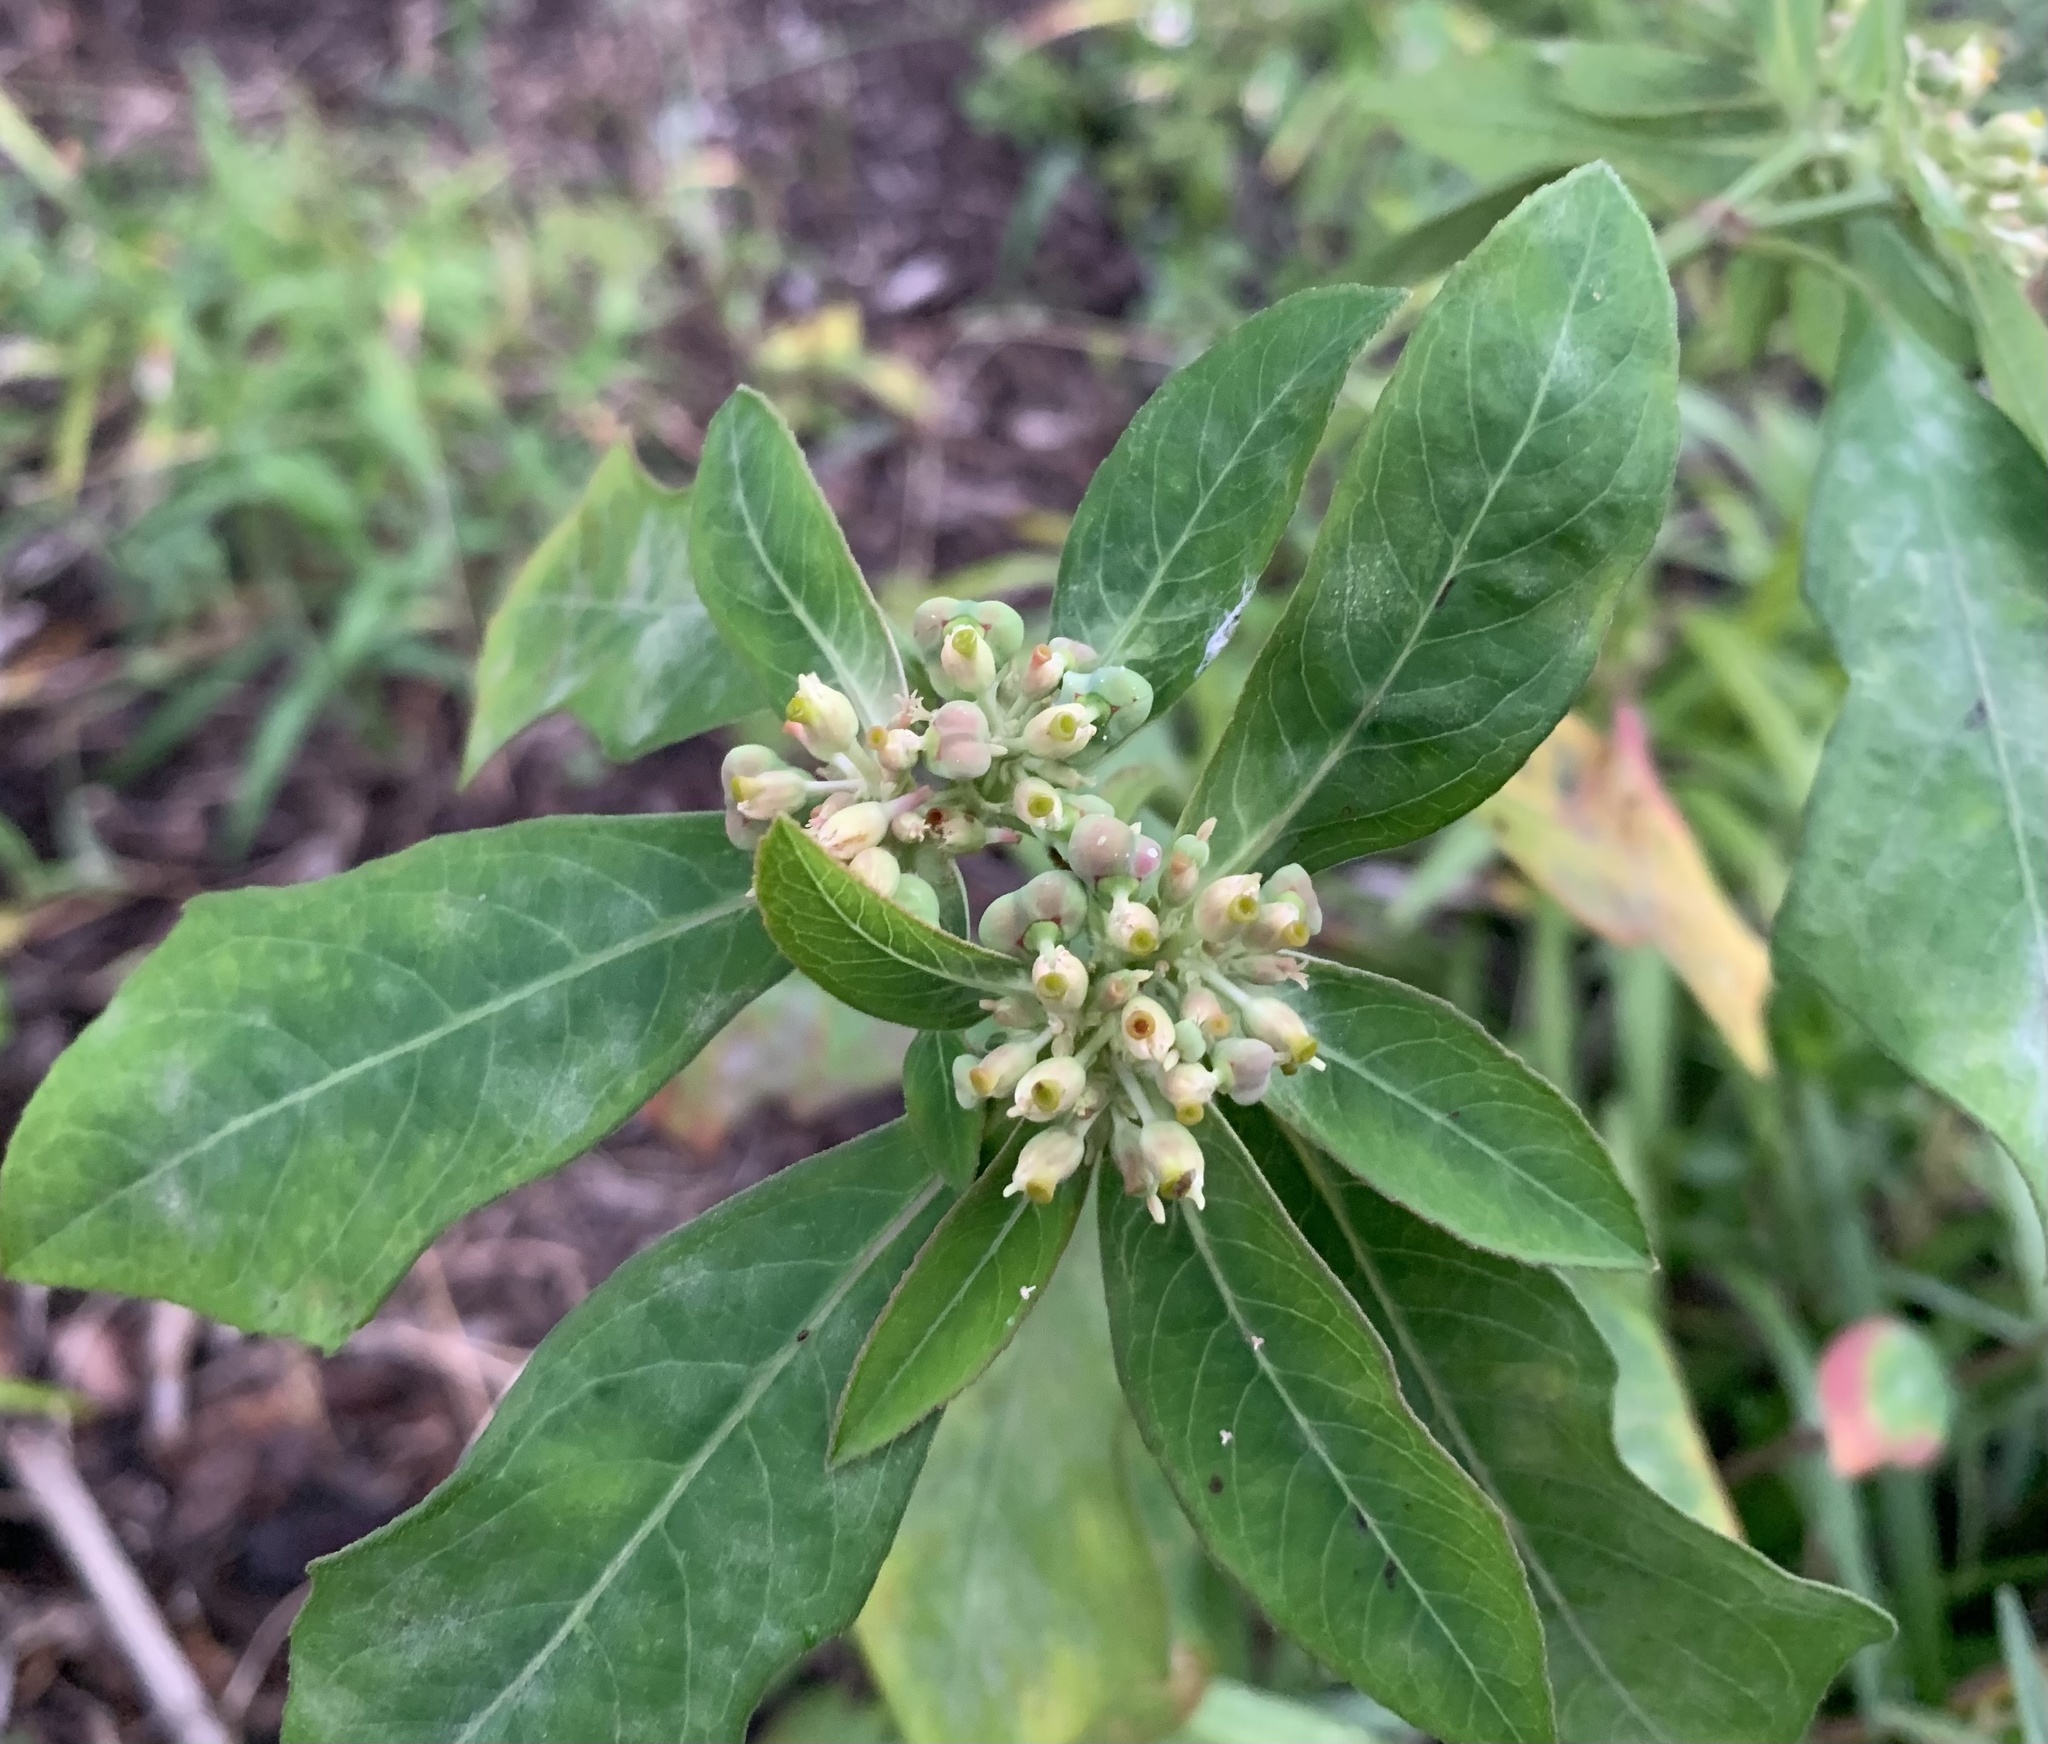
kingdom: Plantae
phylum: Tracheophyta
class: Magnoliopsida
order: Malpighiales
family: Euphorbiaceae
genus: Euphorbia
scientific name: Euphorbia heterophylla
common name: Mexican fireplant
